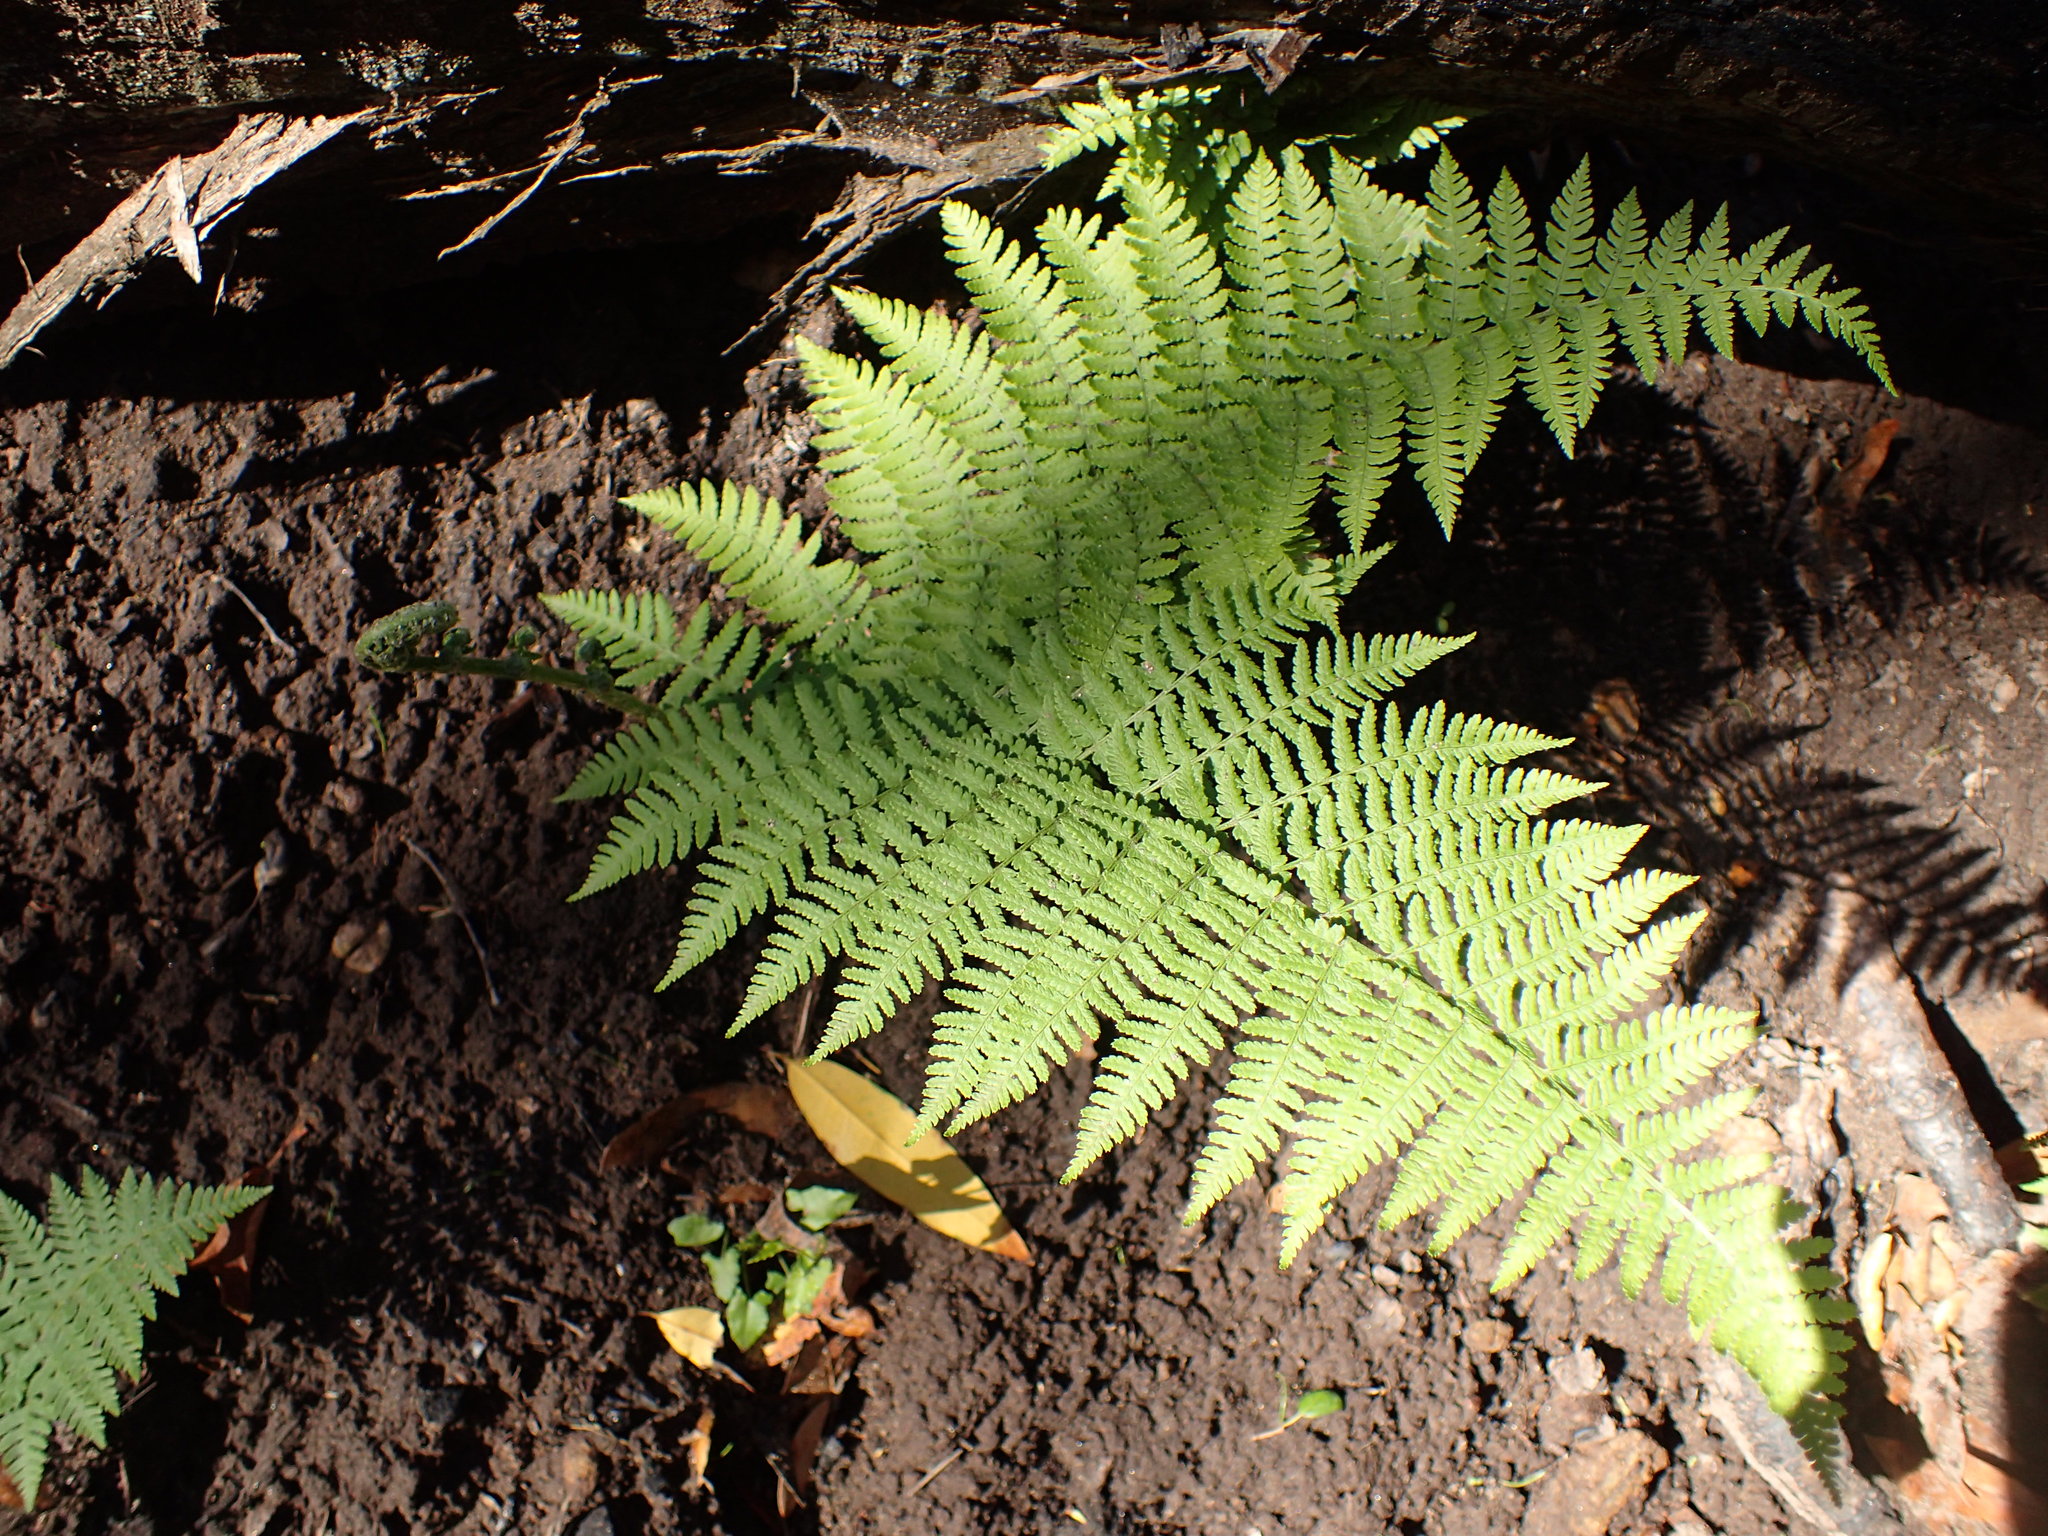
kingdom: Plantae
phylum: Tracheophyta
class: Polypodiopsida
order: Polypodiales
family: Dryopteridaceae
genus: Dryopteris
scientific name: Dryopteris arguta
